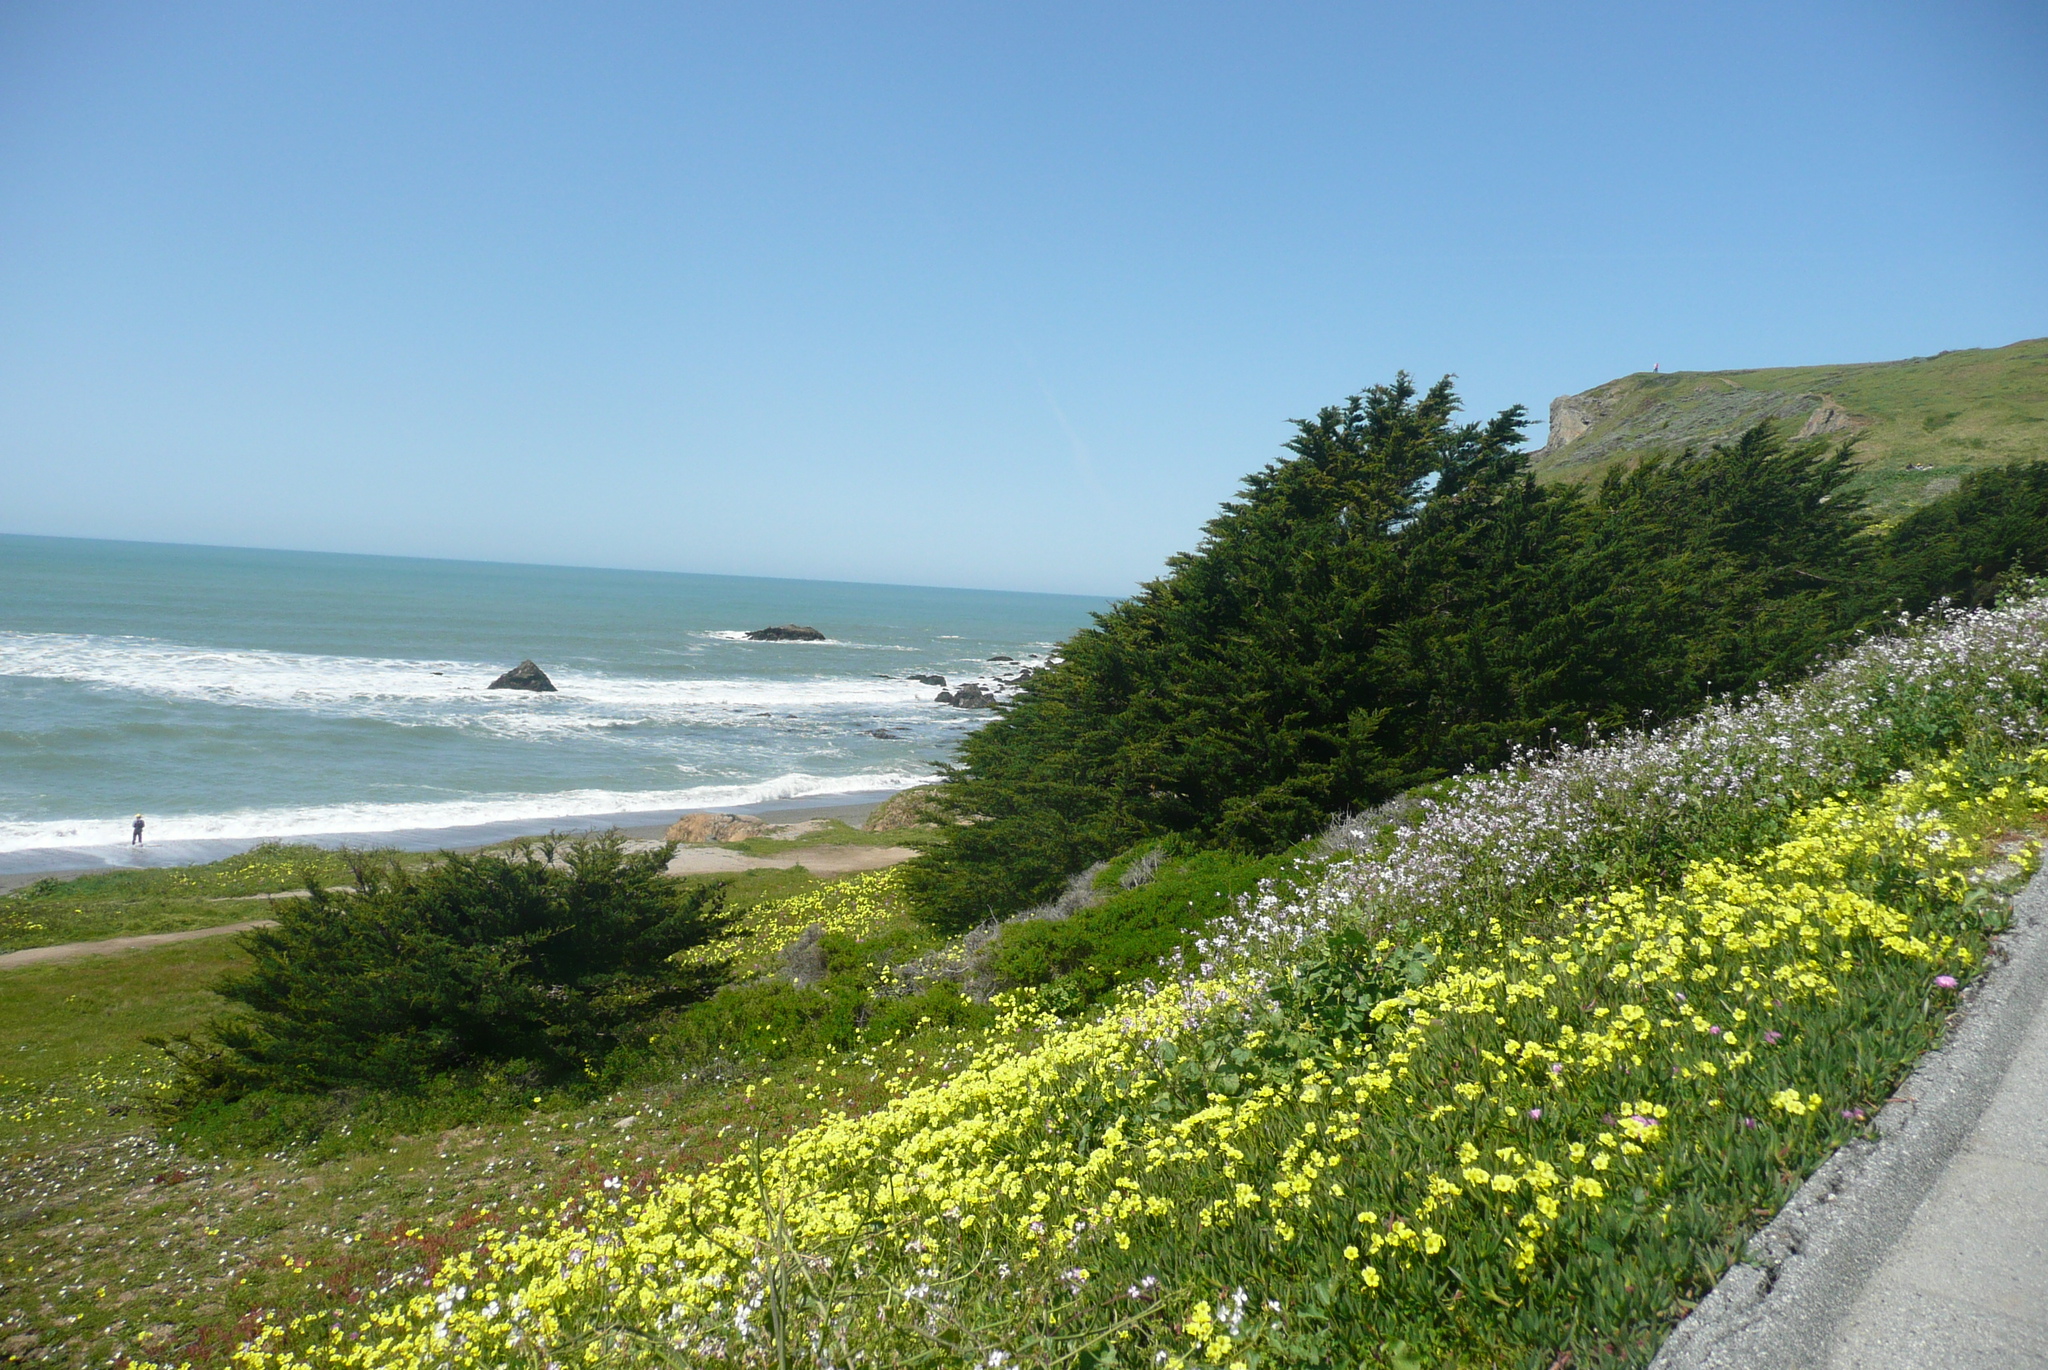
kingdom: Plantae
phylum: Tracheophyta
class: Magnoliopsida
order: Oxalidales
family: Oxalidaceae
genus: Oxalis
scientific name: Oxalis pes-caprae
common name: Bermuda-buttercup
